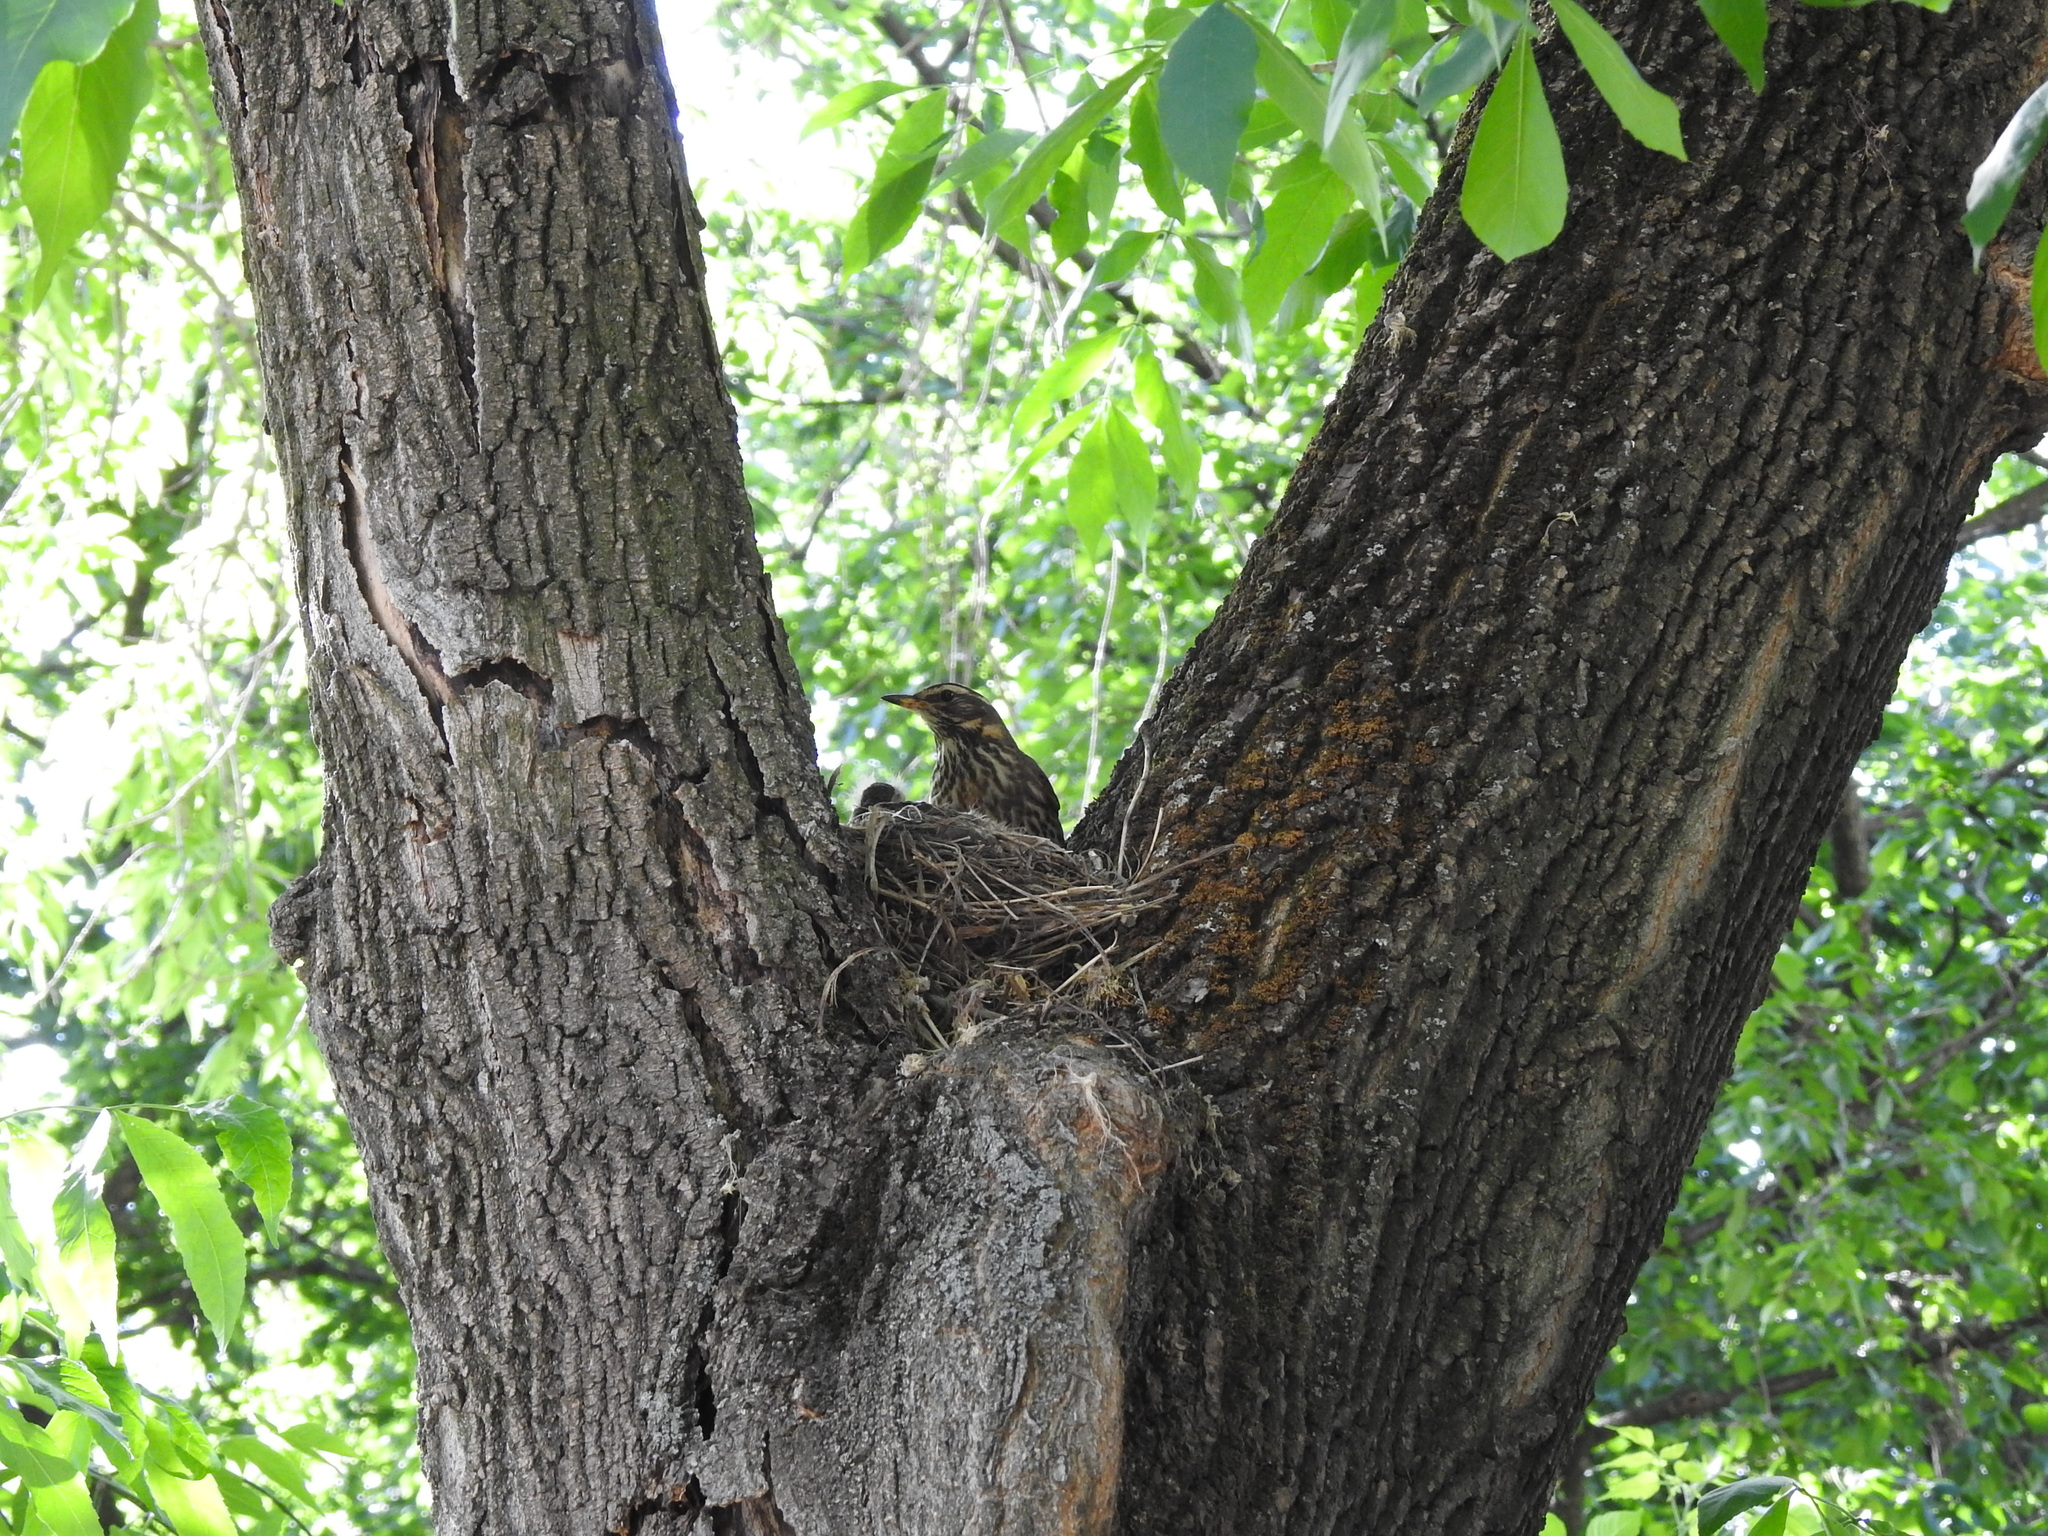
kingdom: Animalia
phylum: Chordata
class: Aves
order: Passeriformes
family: Turdidae
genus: Turdus
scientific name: Turdus iliacus
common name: Redwing
